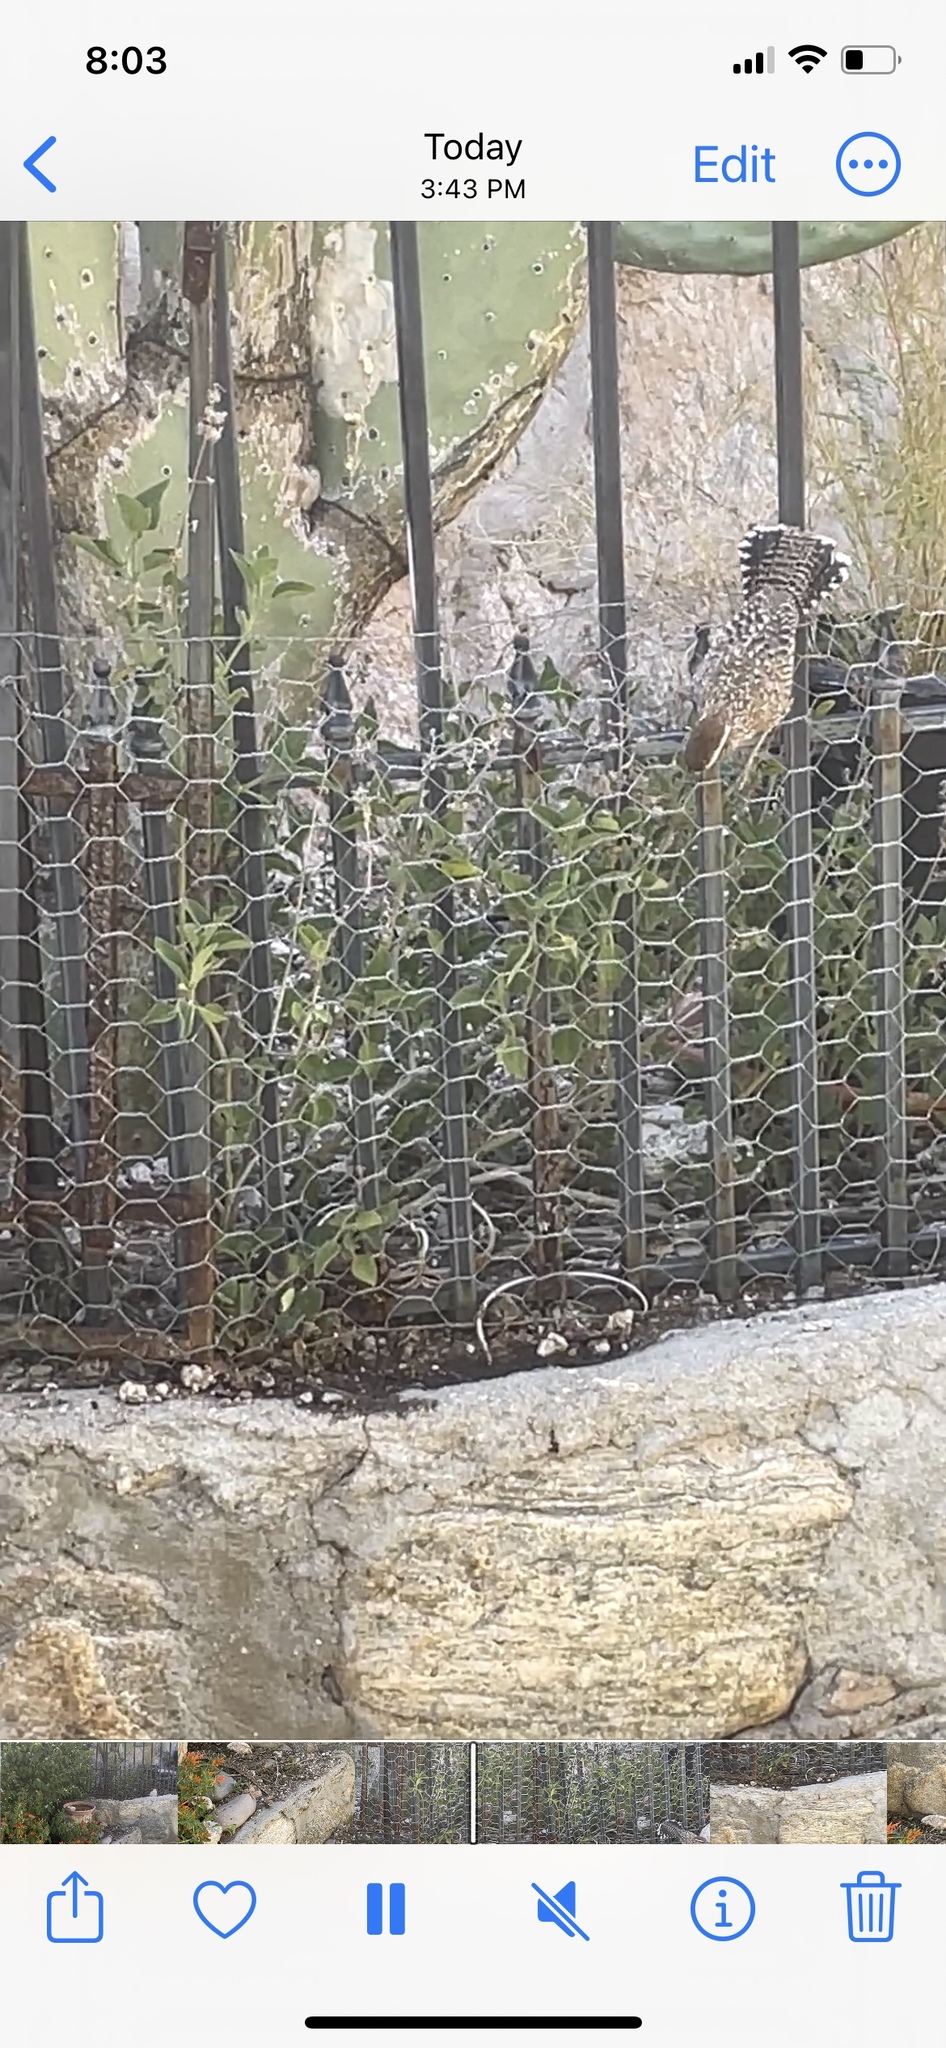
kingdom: Animalia
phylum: Chordata
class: Aves
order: Passeriformes
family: Troglodytidae
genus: Campylorhynchus
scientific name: Campylorhynchus brunneicapillus
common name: Cactus wren
